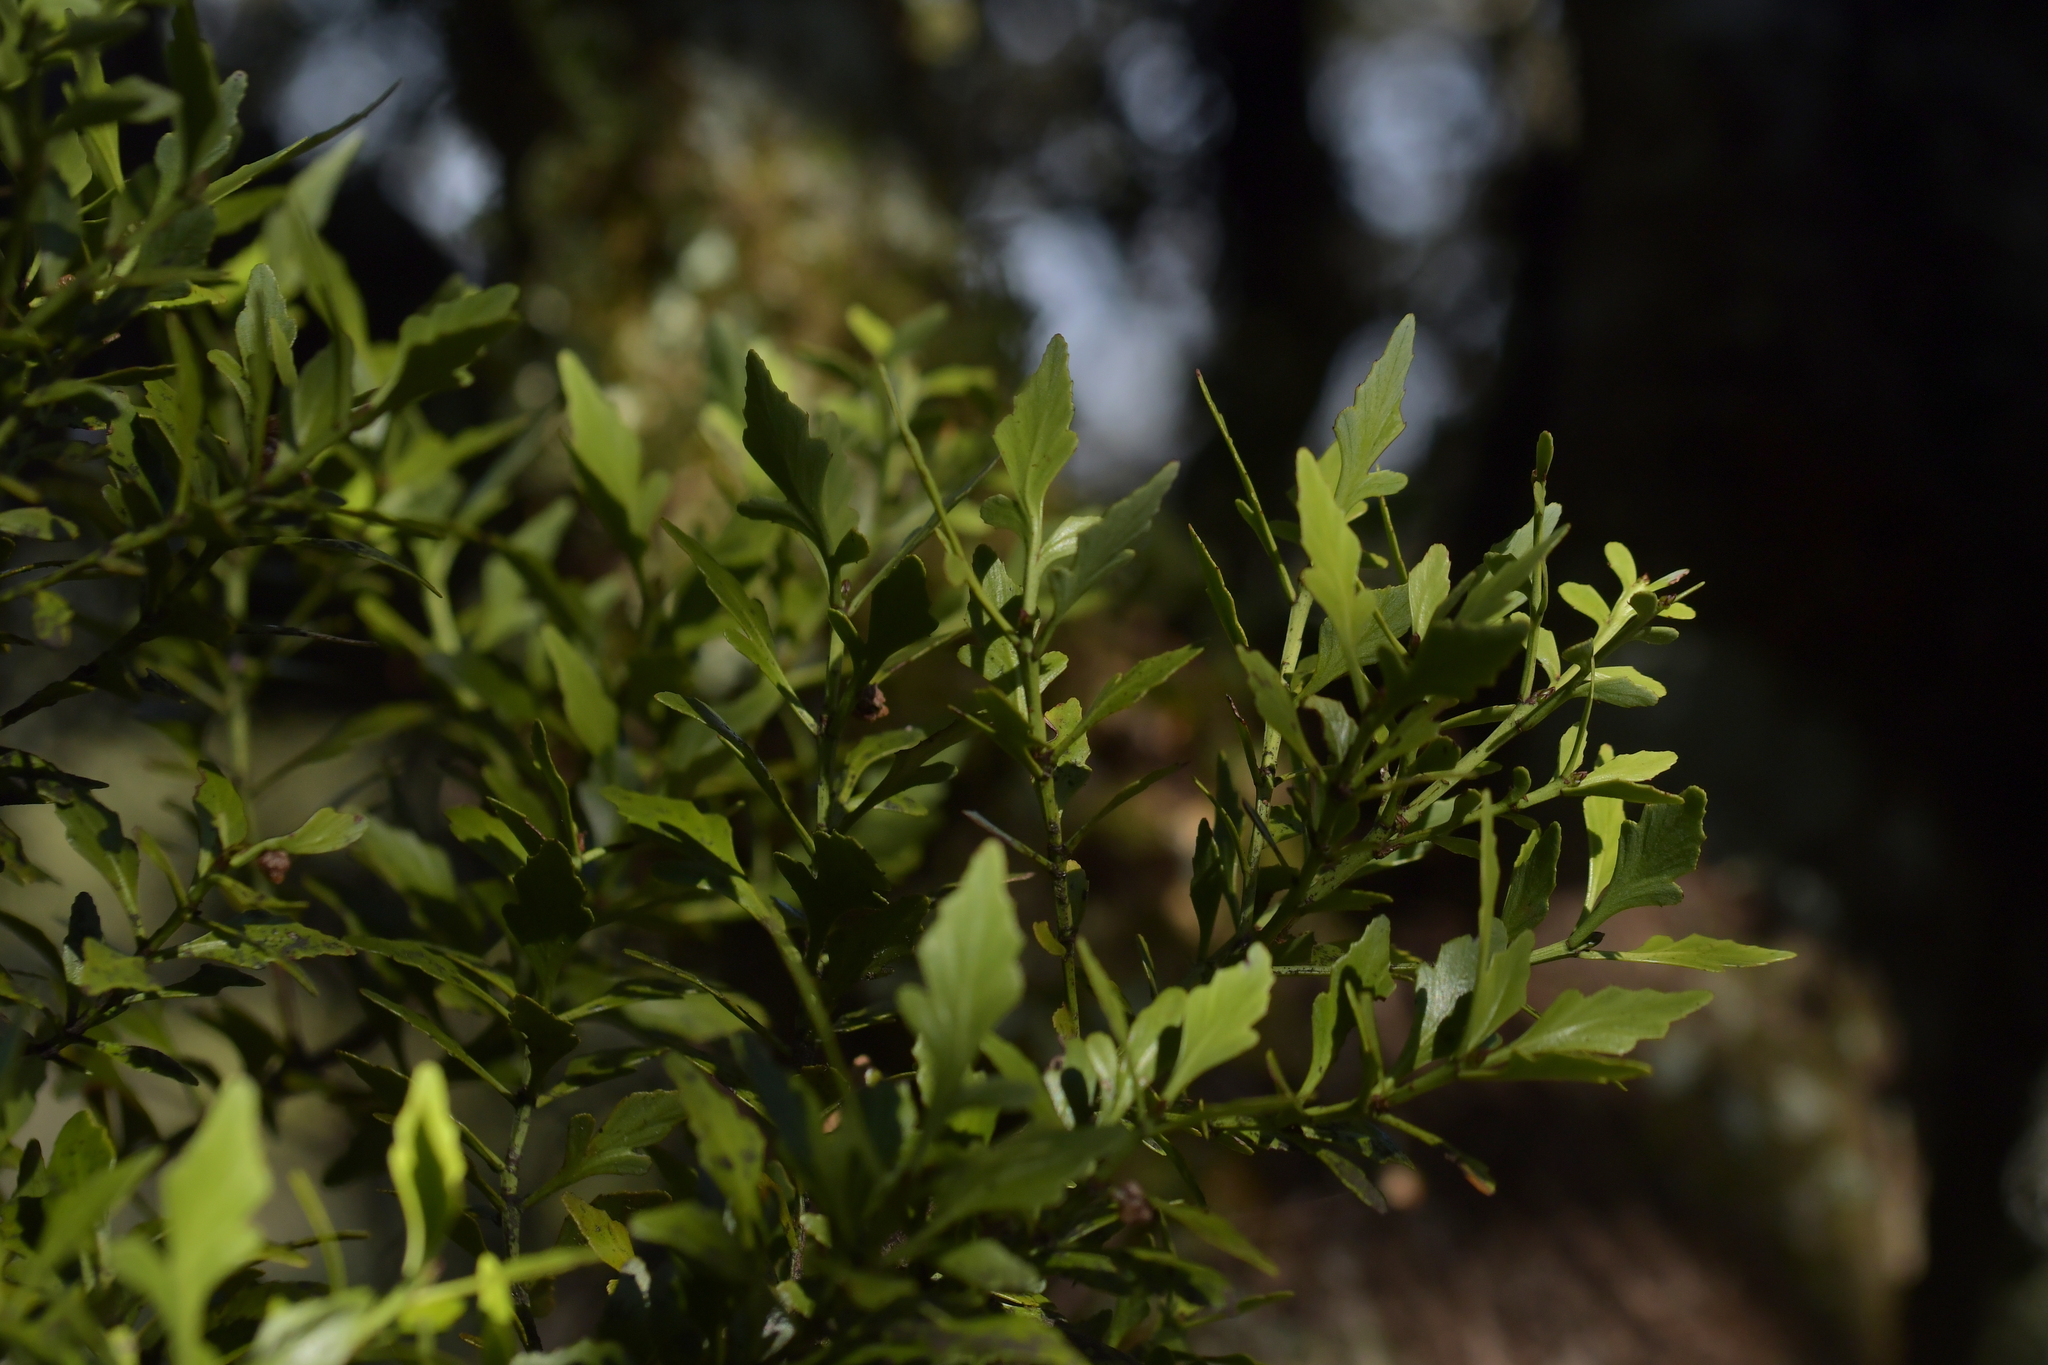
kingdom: Plantae
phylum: Tracheophyta
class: Pinopsida
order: Pinales
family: Phyllocladaceae
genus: Phyllocladus
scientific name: Phyllocladus trichomanoides
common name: Celery pine
